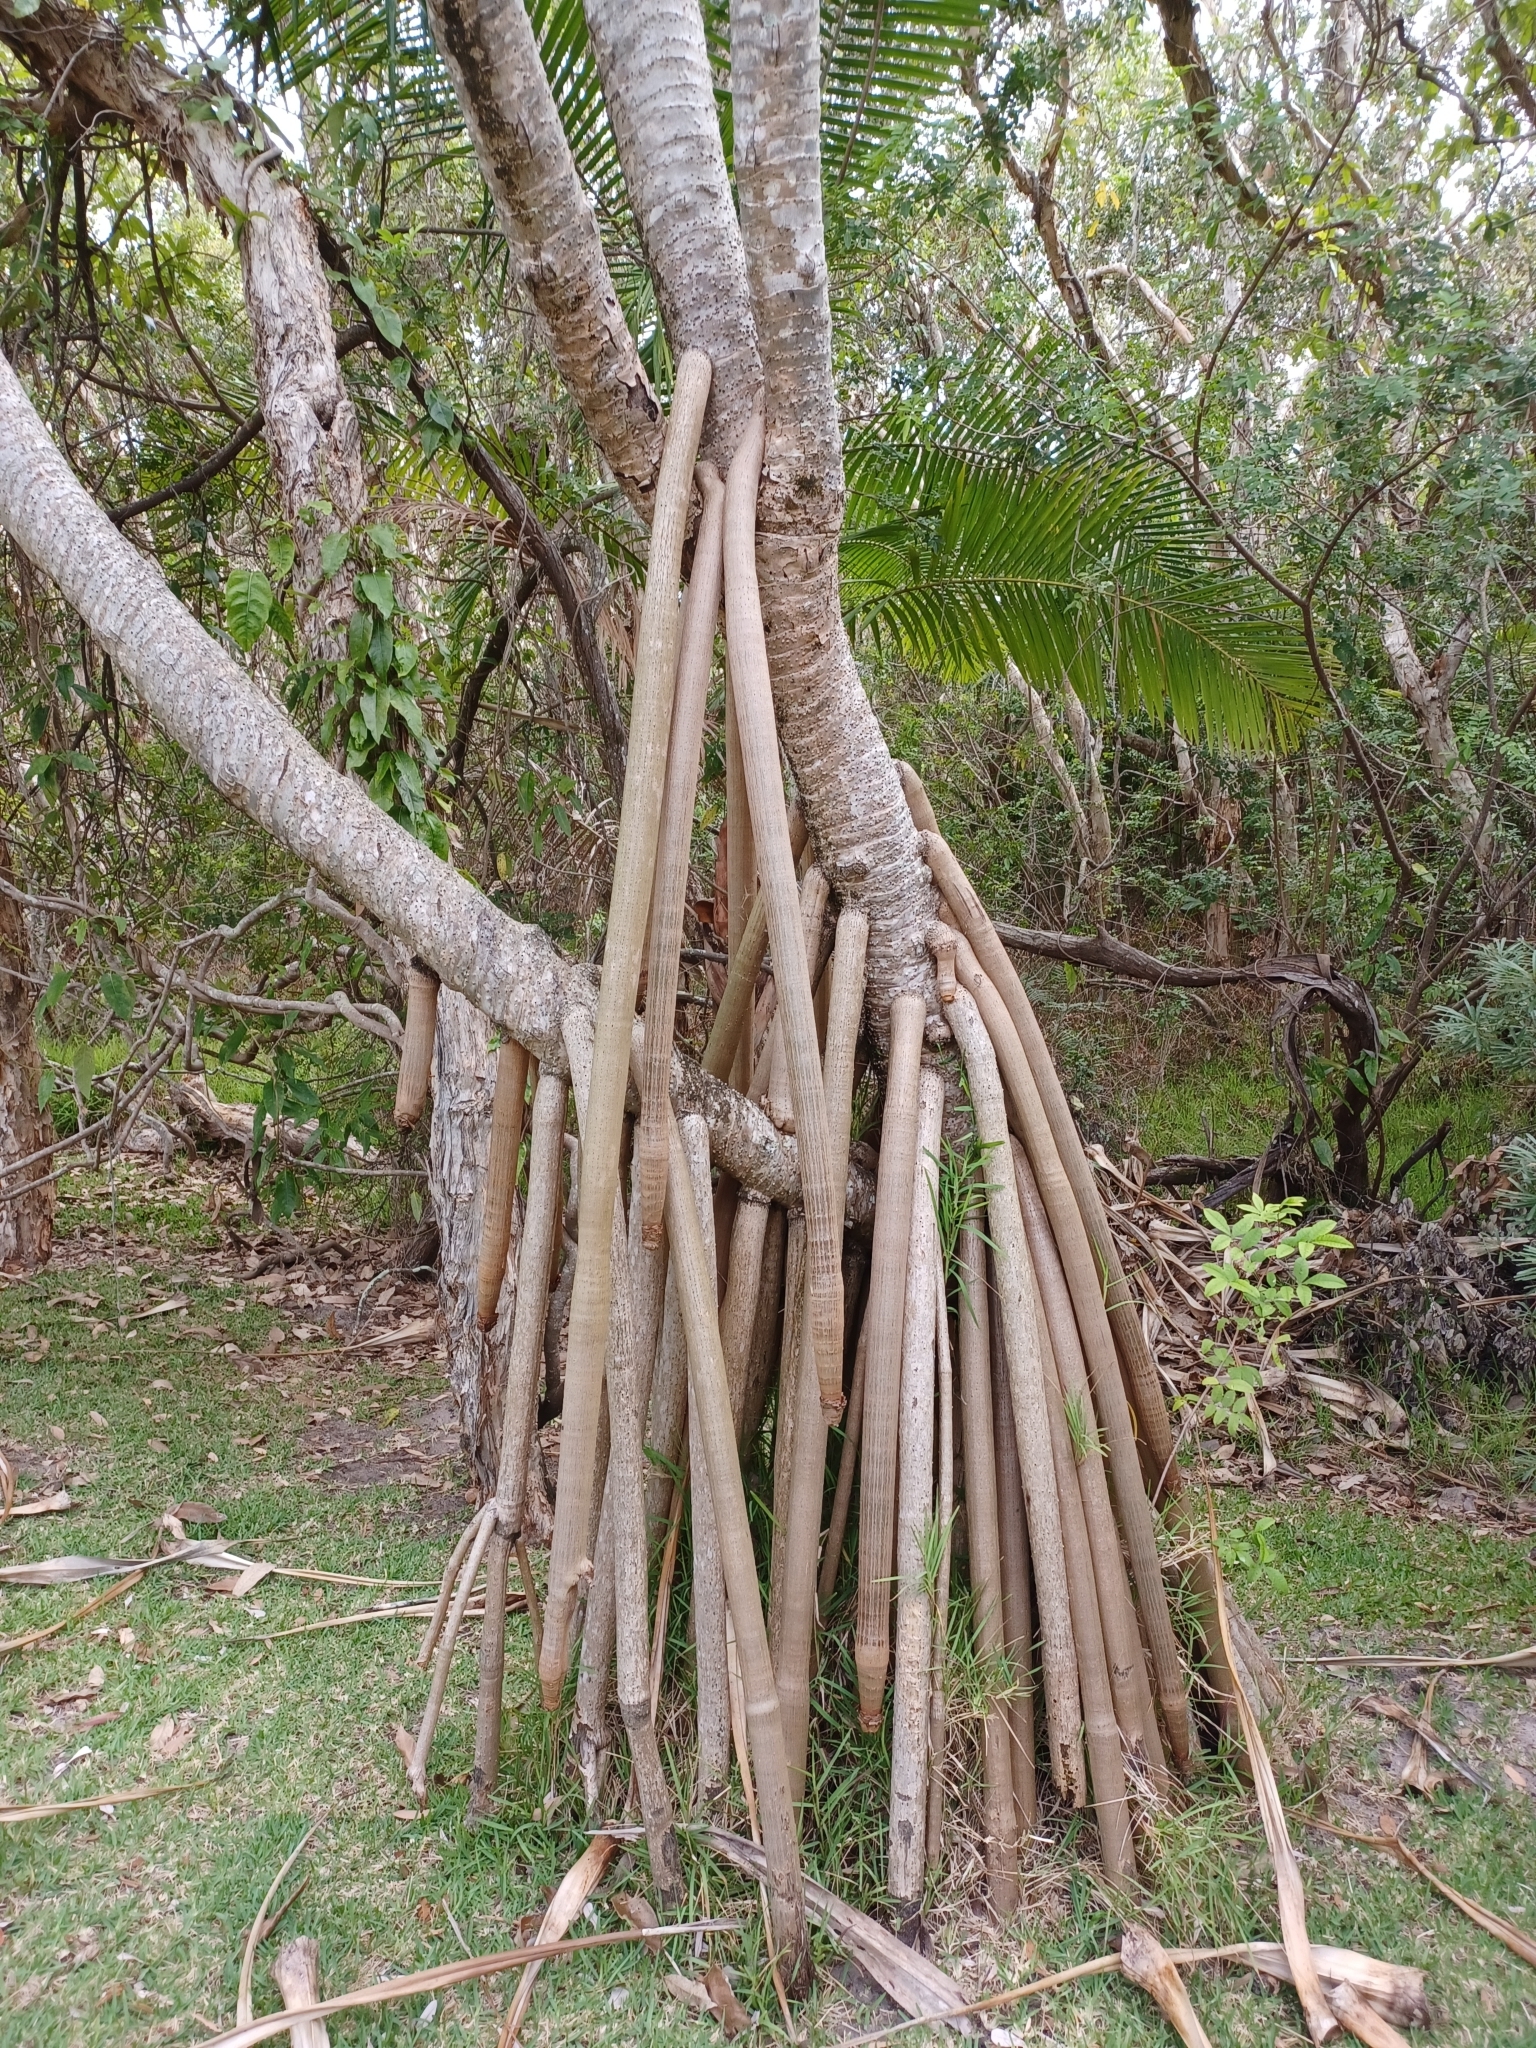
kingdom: Plantae
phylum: Tracheophyta
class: Liliopsida
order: Pandanales
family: Pandanaceae
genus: Pandanus
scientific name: Pandanus tectorius
